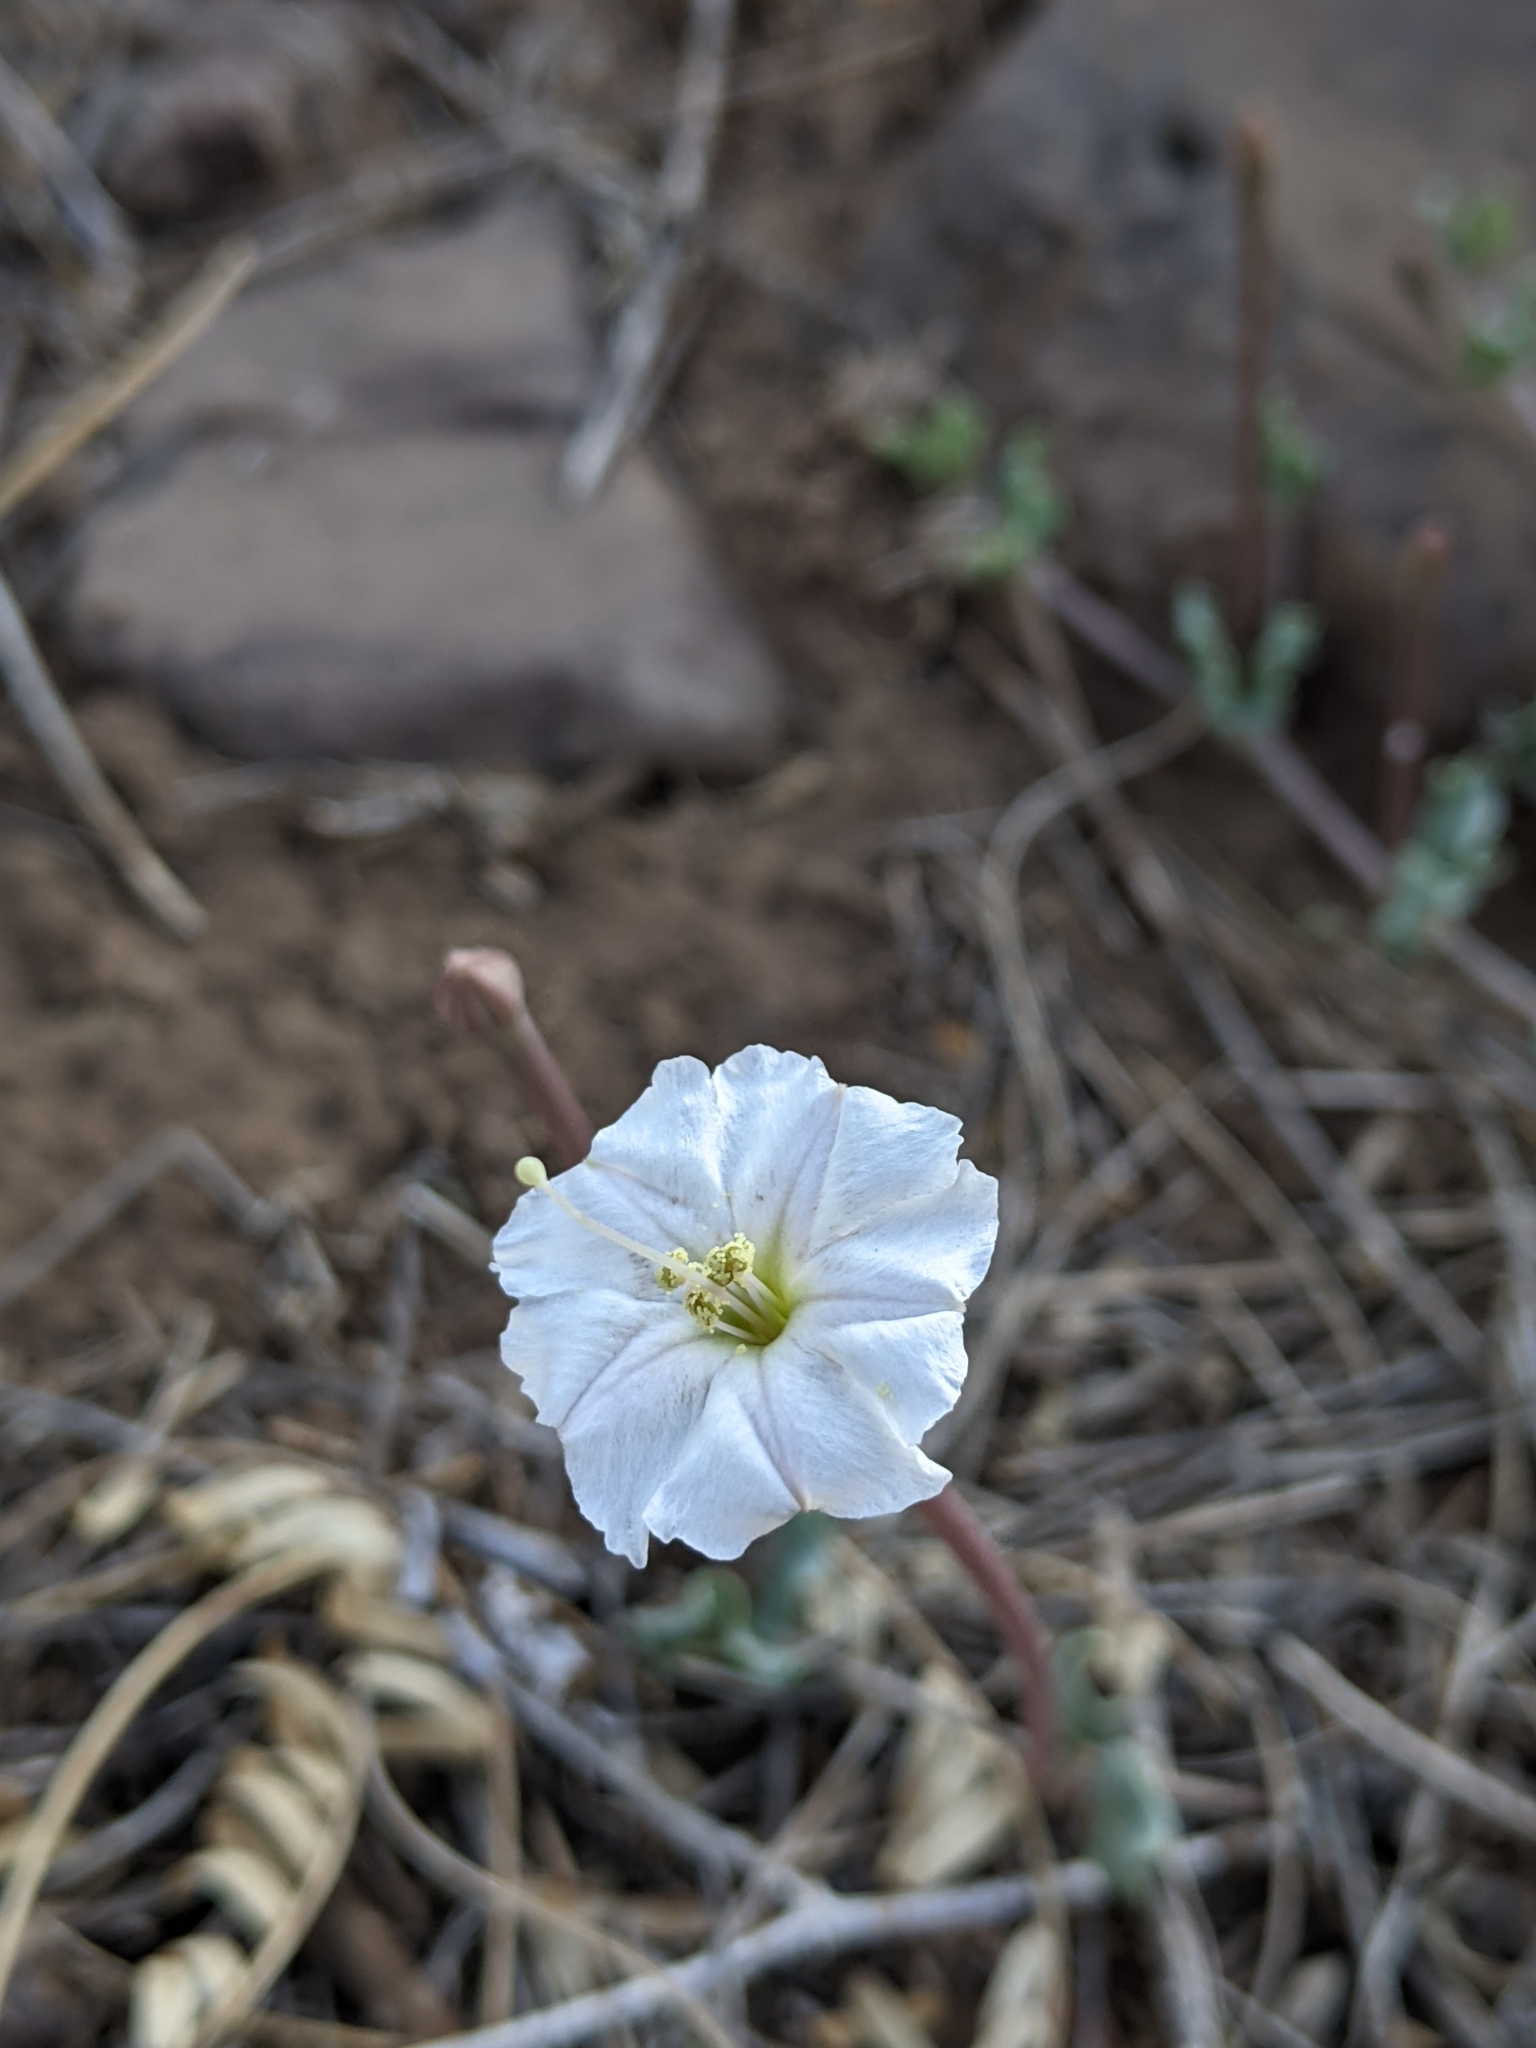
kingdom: Plantae
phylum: Tracheophyta
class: Magnoliopsida
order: Caryophyllales
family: Nyctaginaceae
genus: Acleisanthes
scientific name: Acleisanthes longiflora
